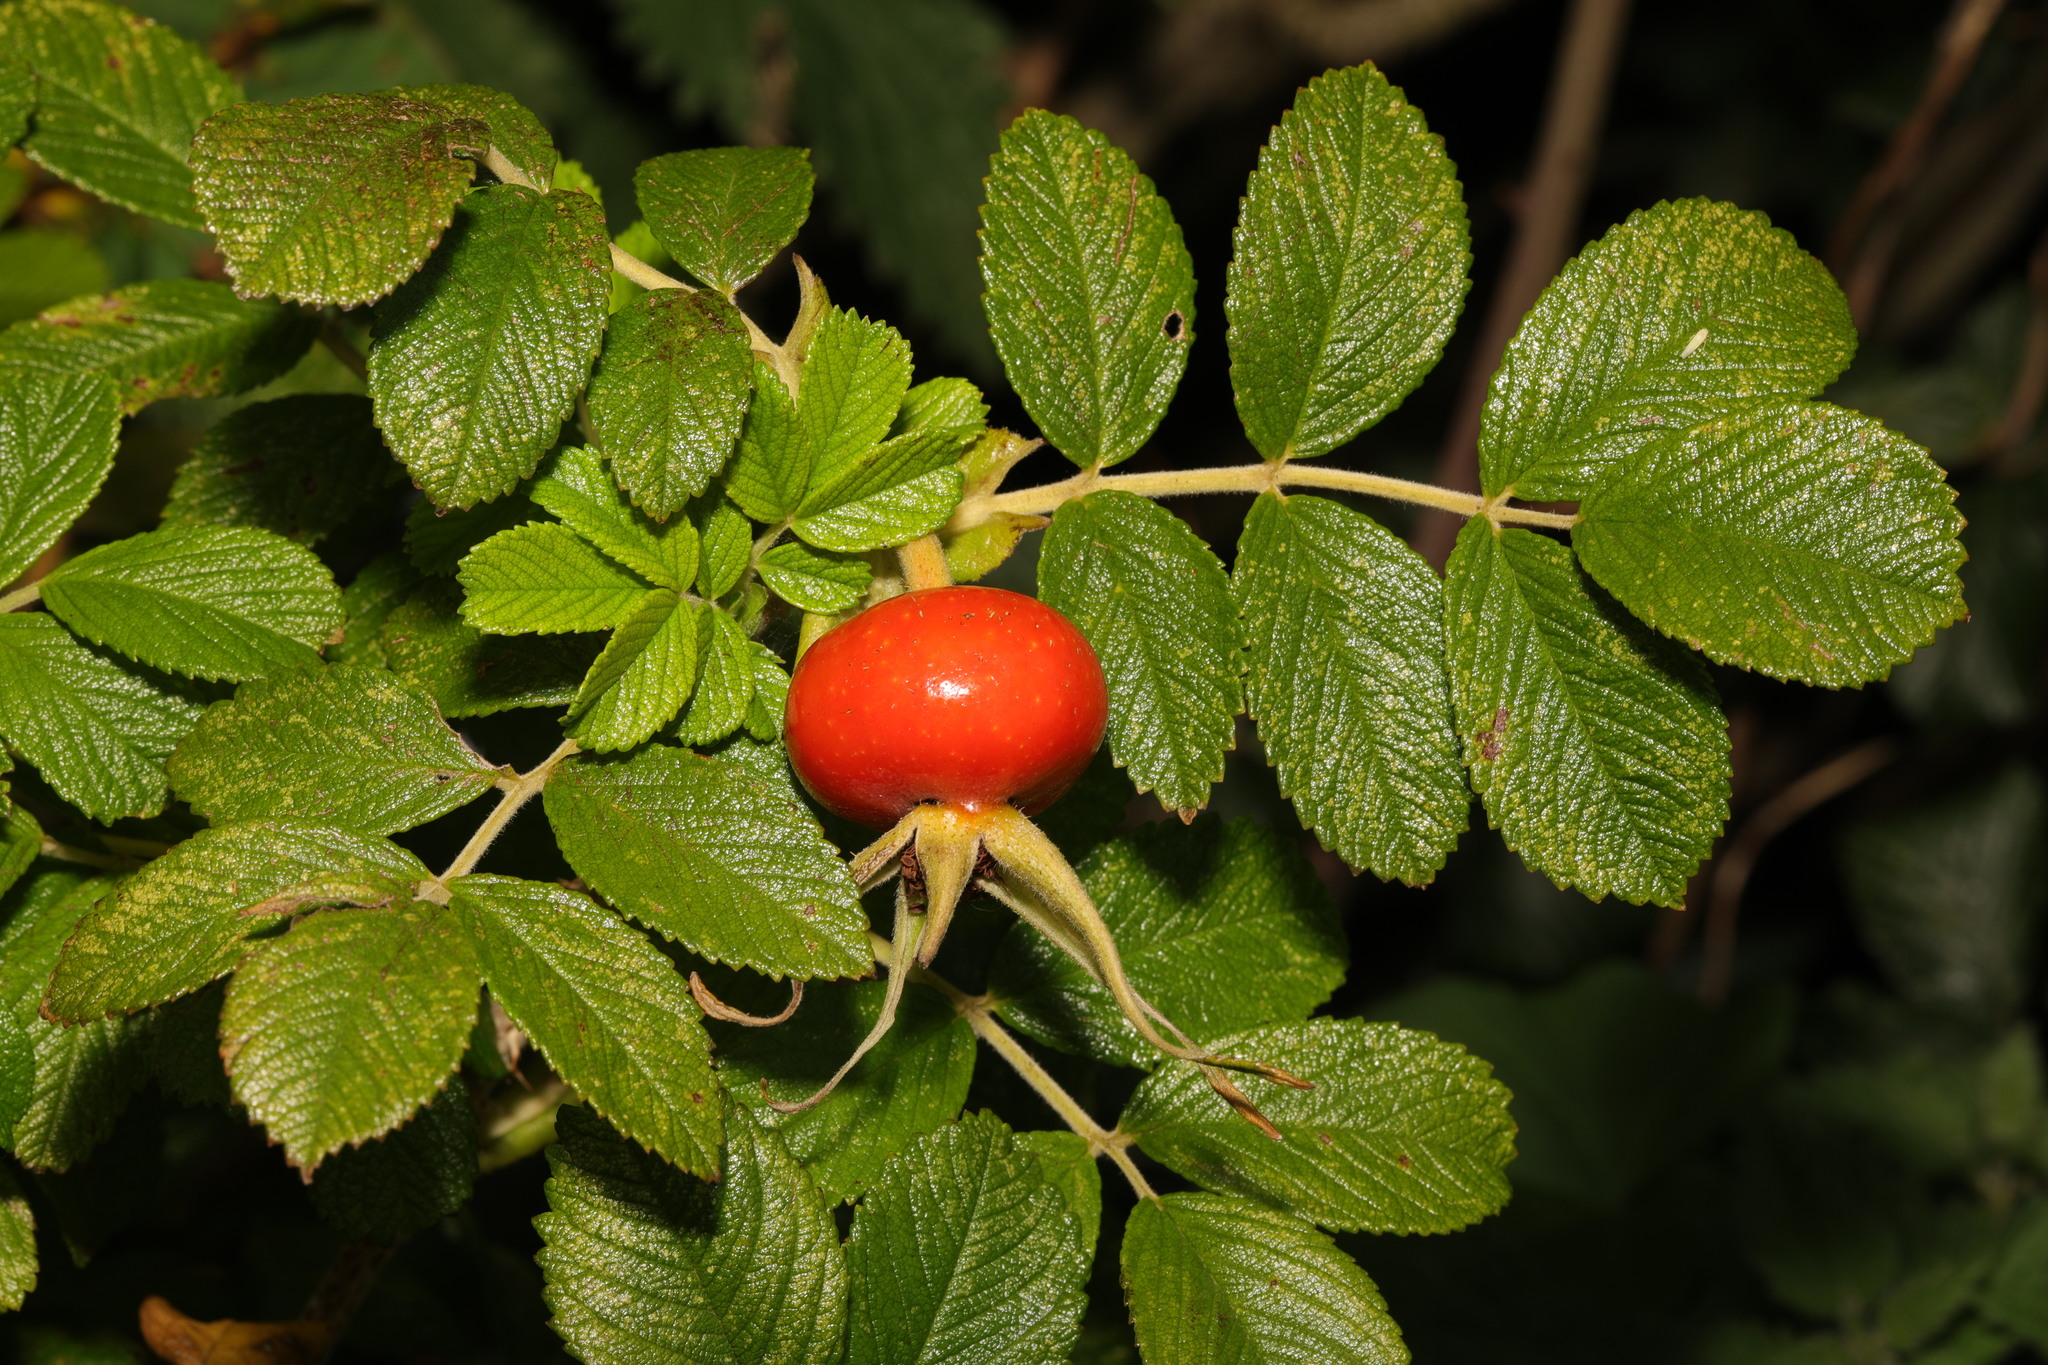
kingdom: Plantae
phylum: Tracheophyta
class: Magnoliopsida
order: Rosales
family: Rosaceae
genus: Rosa
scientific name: Rosa rugosa
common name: Japanese rose
